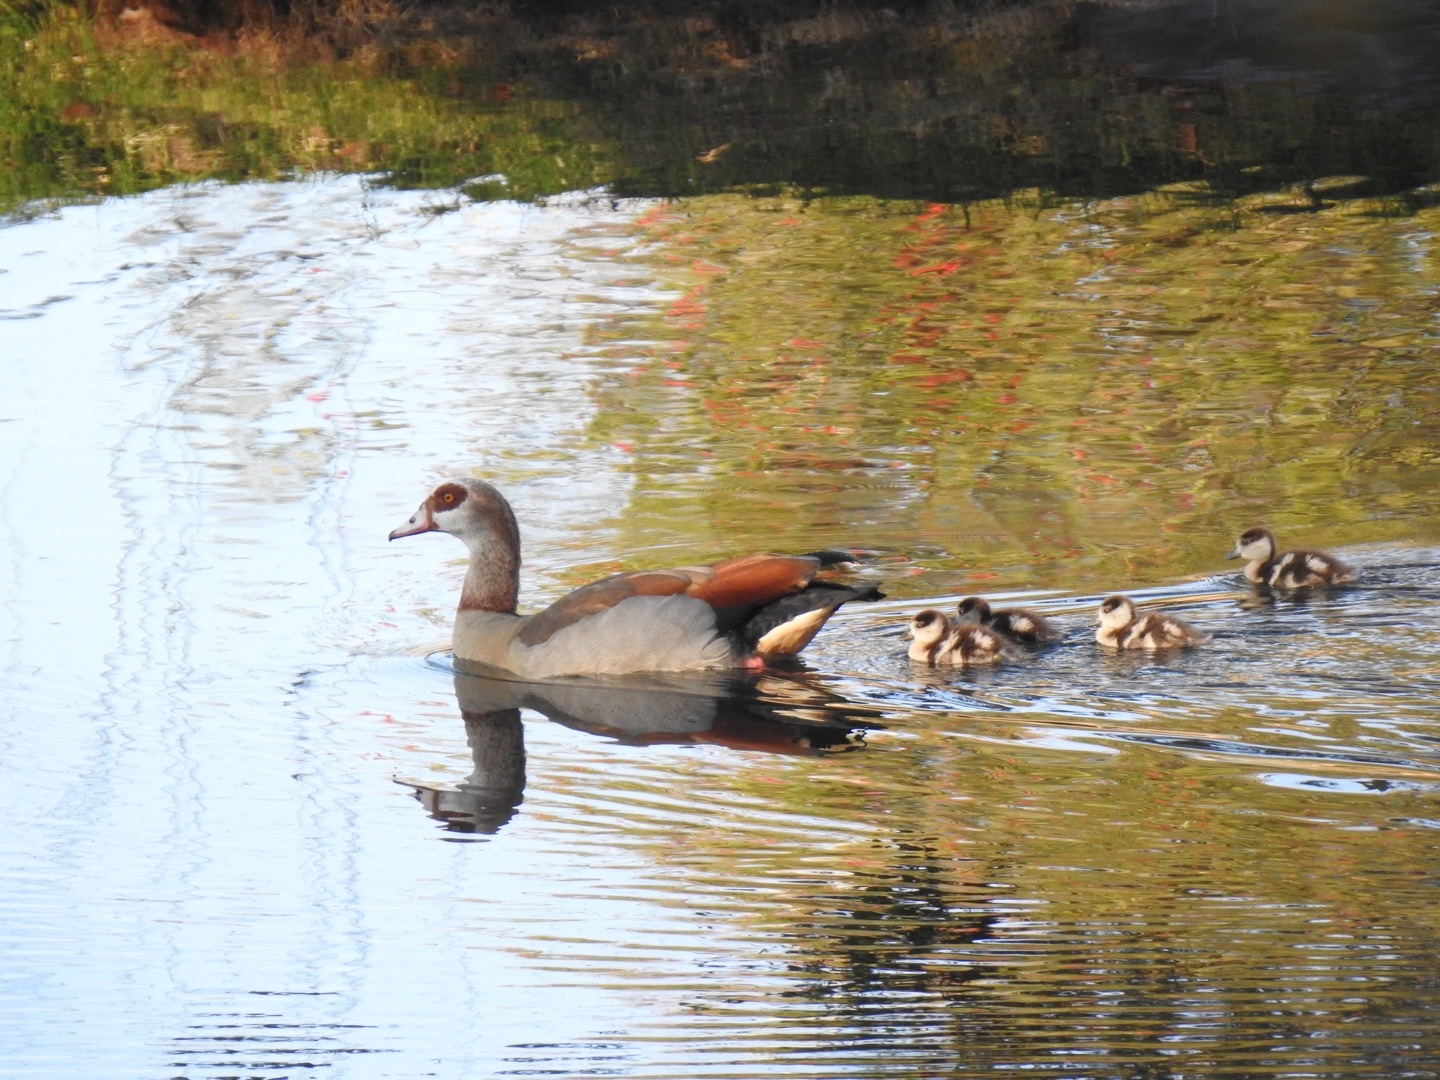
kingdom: Animalia
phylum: Chordata
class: Aves
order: Anseriformes
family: Anatidae
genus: Alopochen
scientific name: Alopochen aegyptiaca
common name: Egyptian goose
